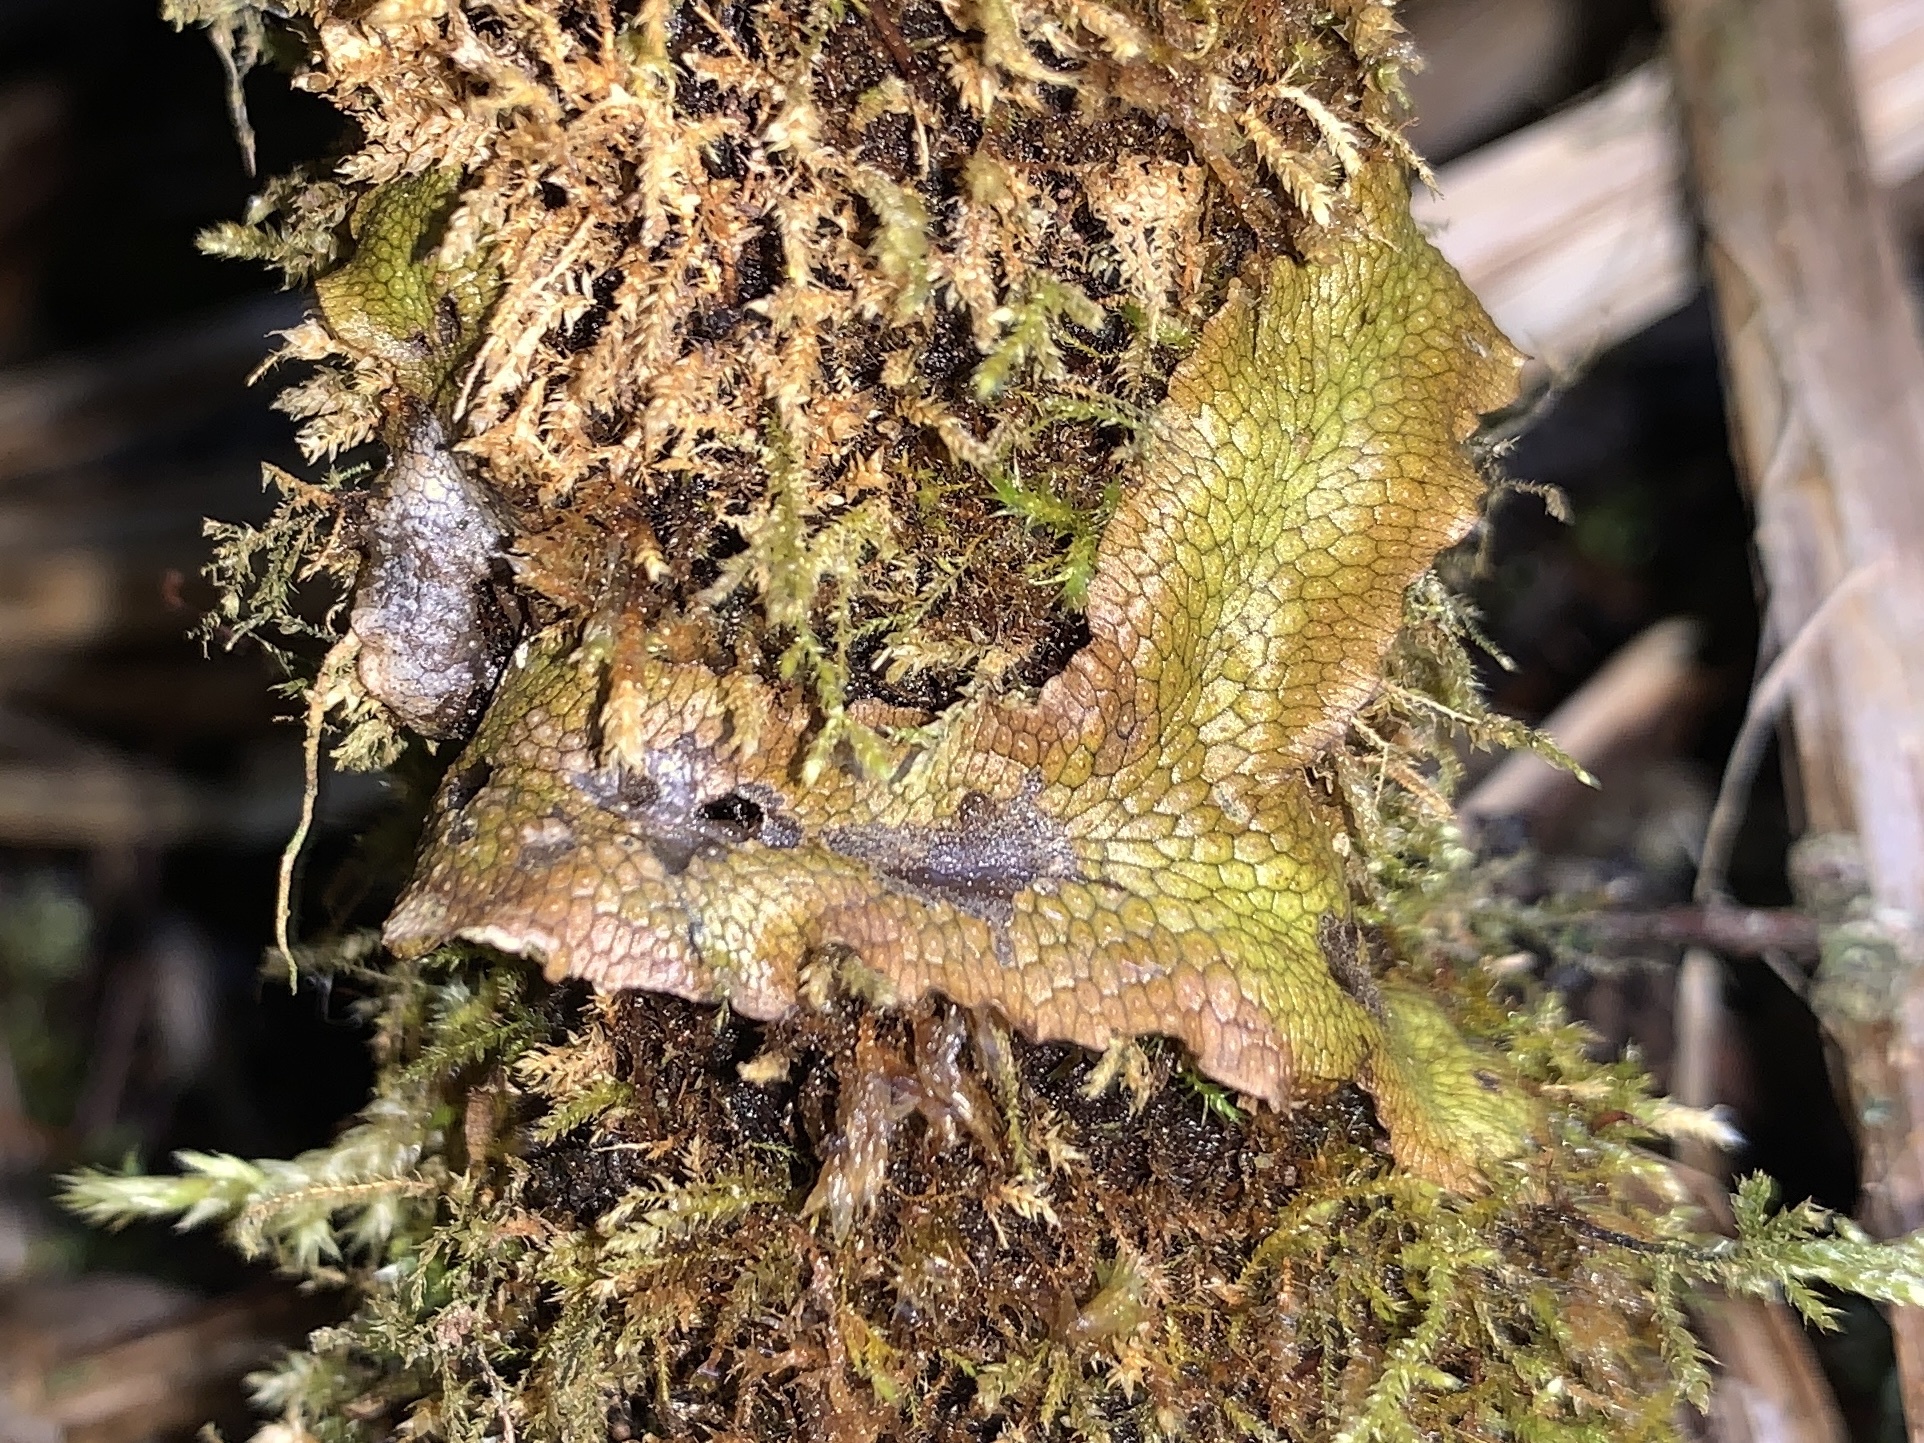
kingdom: Plantae
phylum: Marchantiophyta
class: Marchantiopsida
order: Marchantiales
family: Conocephalaceae
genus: Conocephalum
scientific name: Conocephalum salebrosum
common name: Cat-tongue liverwort
